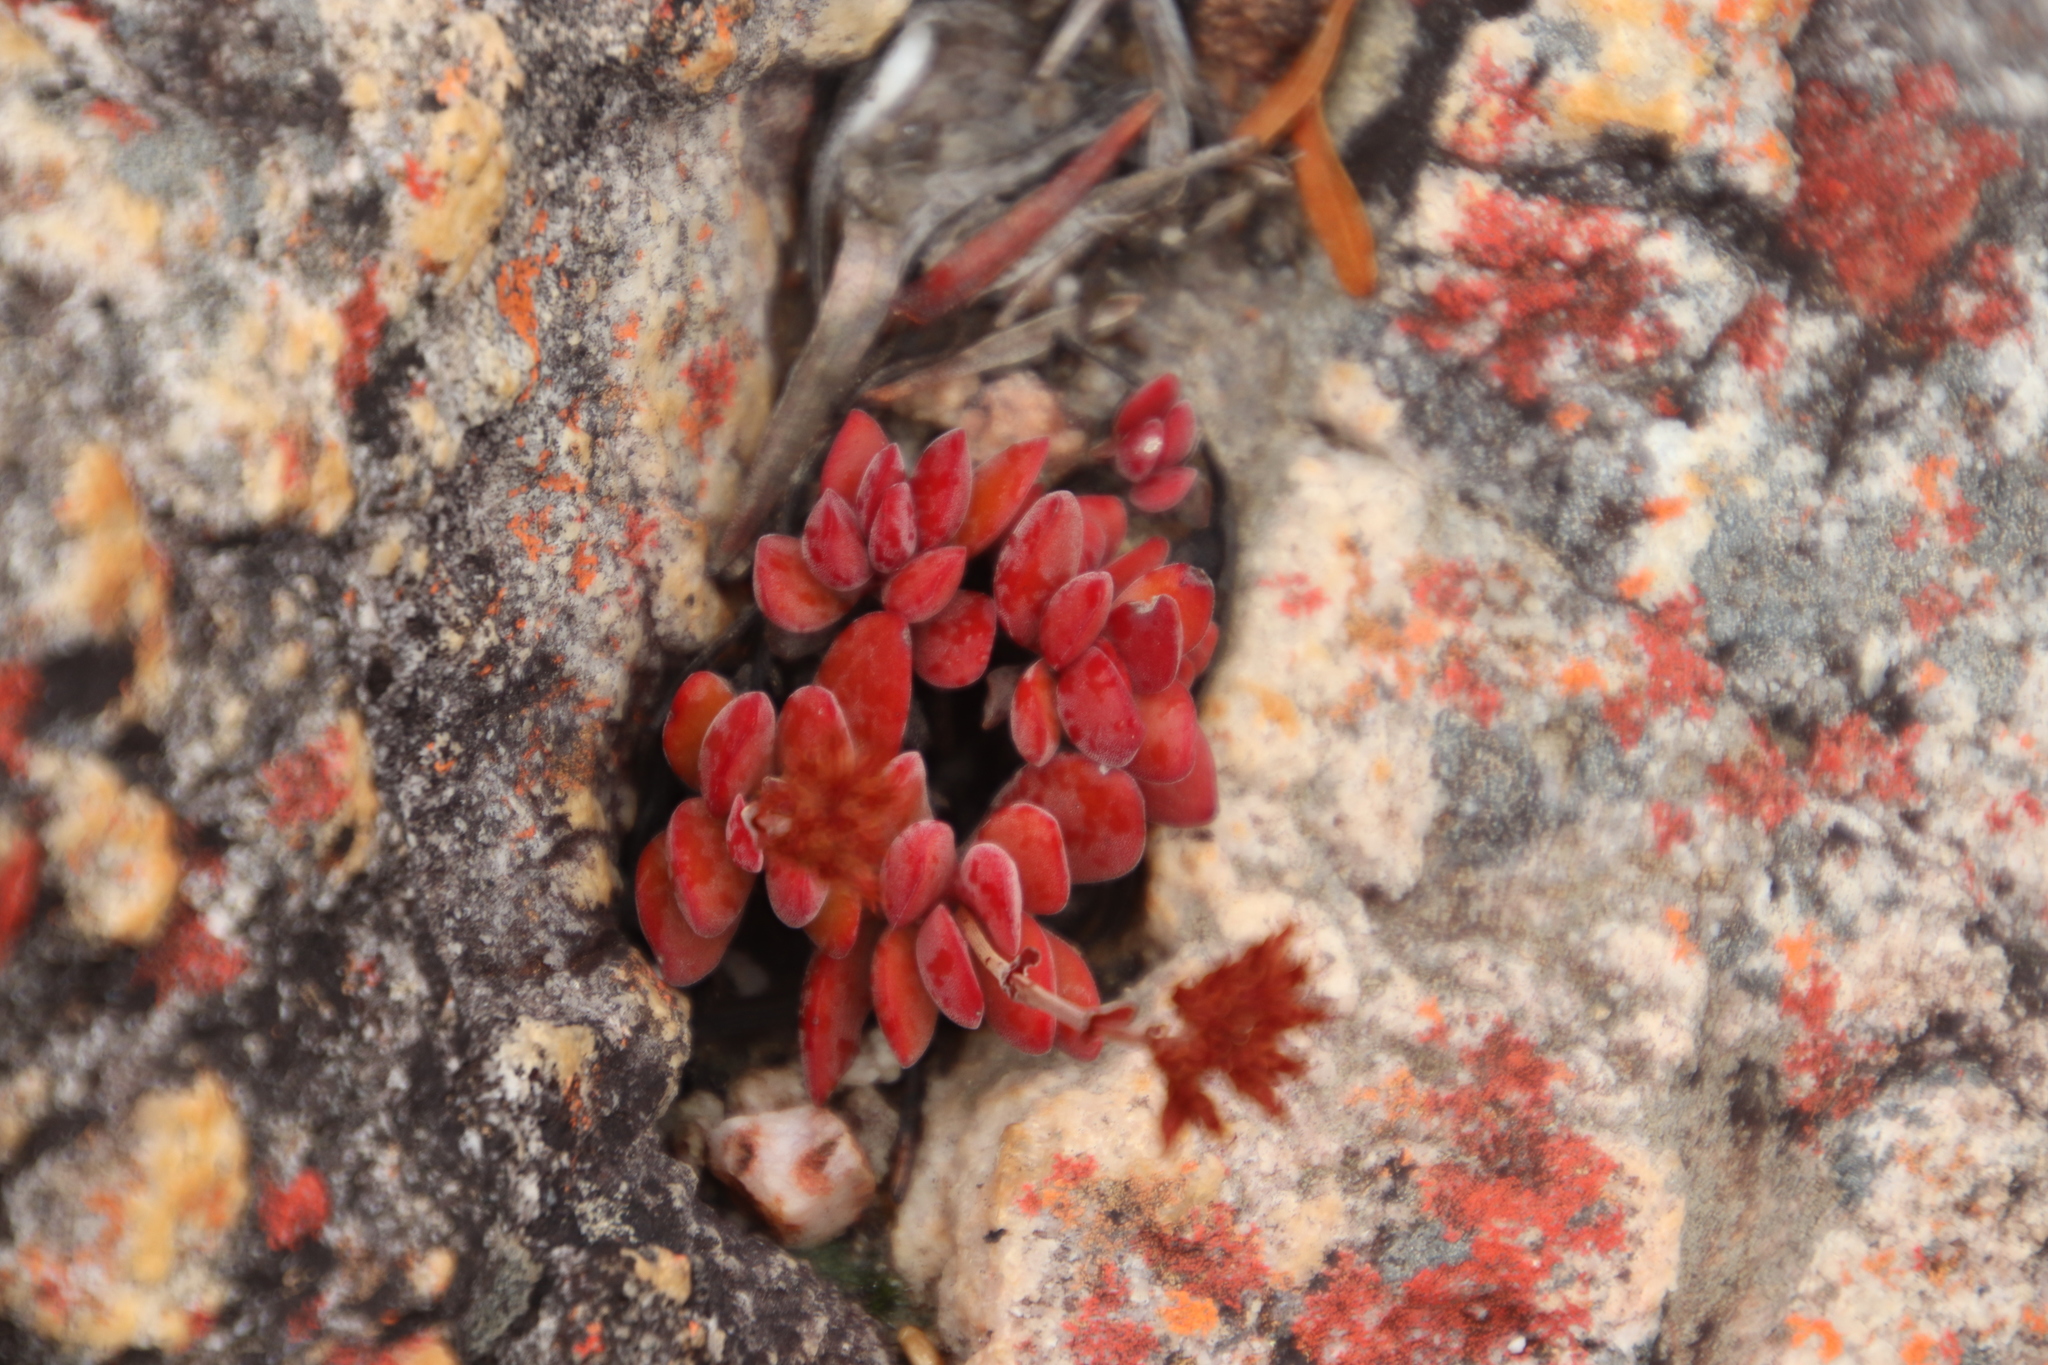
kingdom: Plantae
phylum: Tracheophyta
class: Magnoliopsida
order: Saxifragales
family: Crassulaceae
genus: Crassula
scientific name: Crassula atropurpurea
